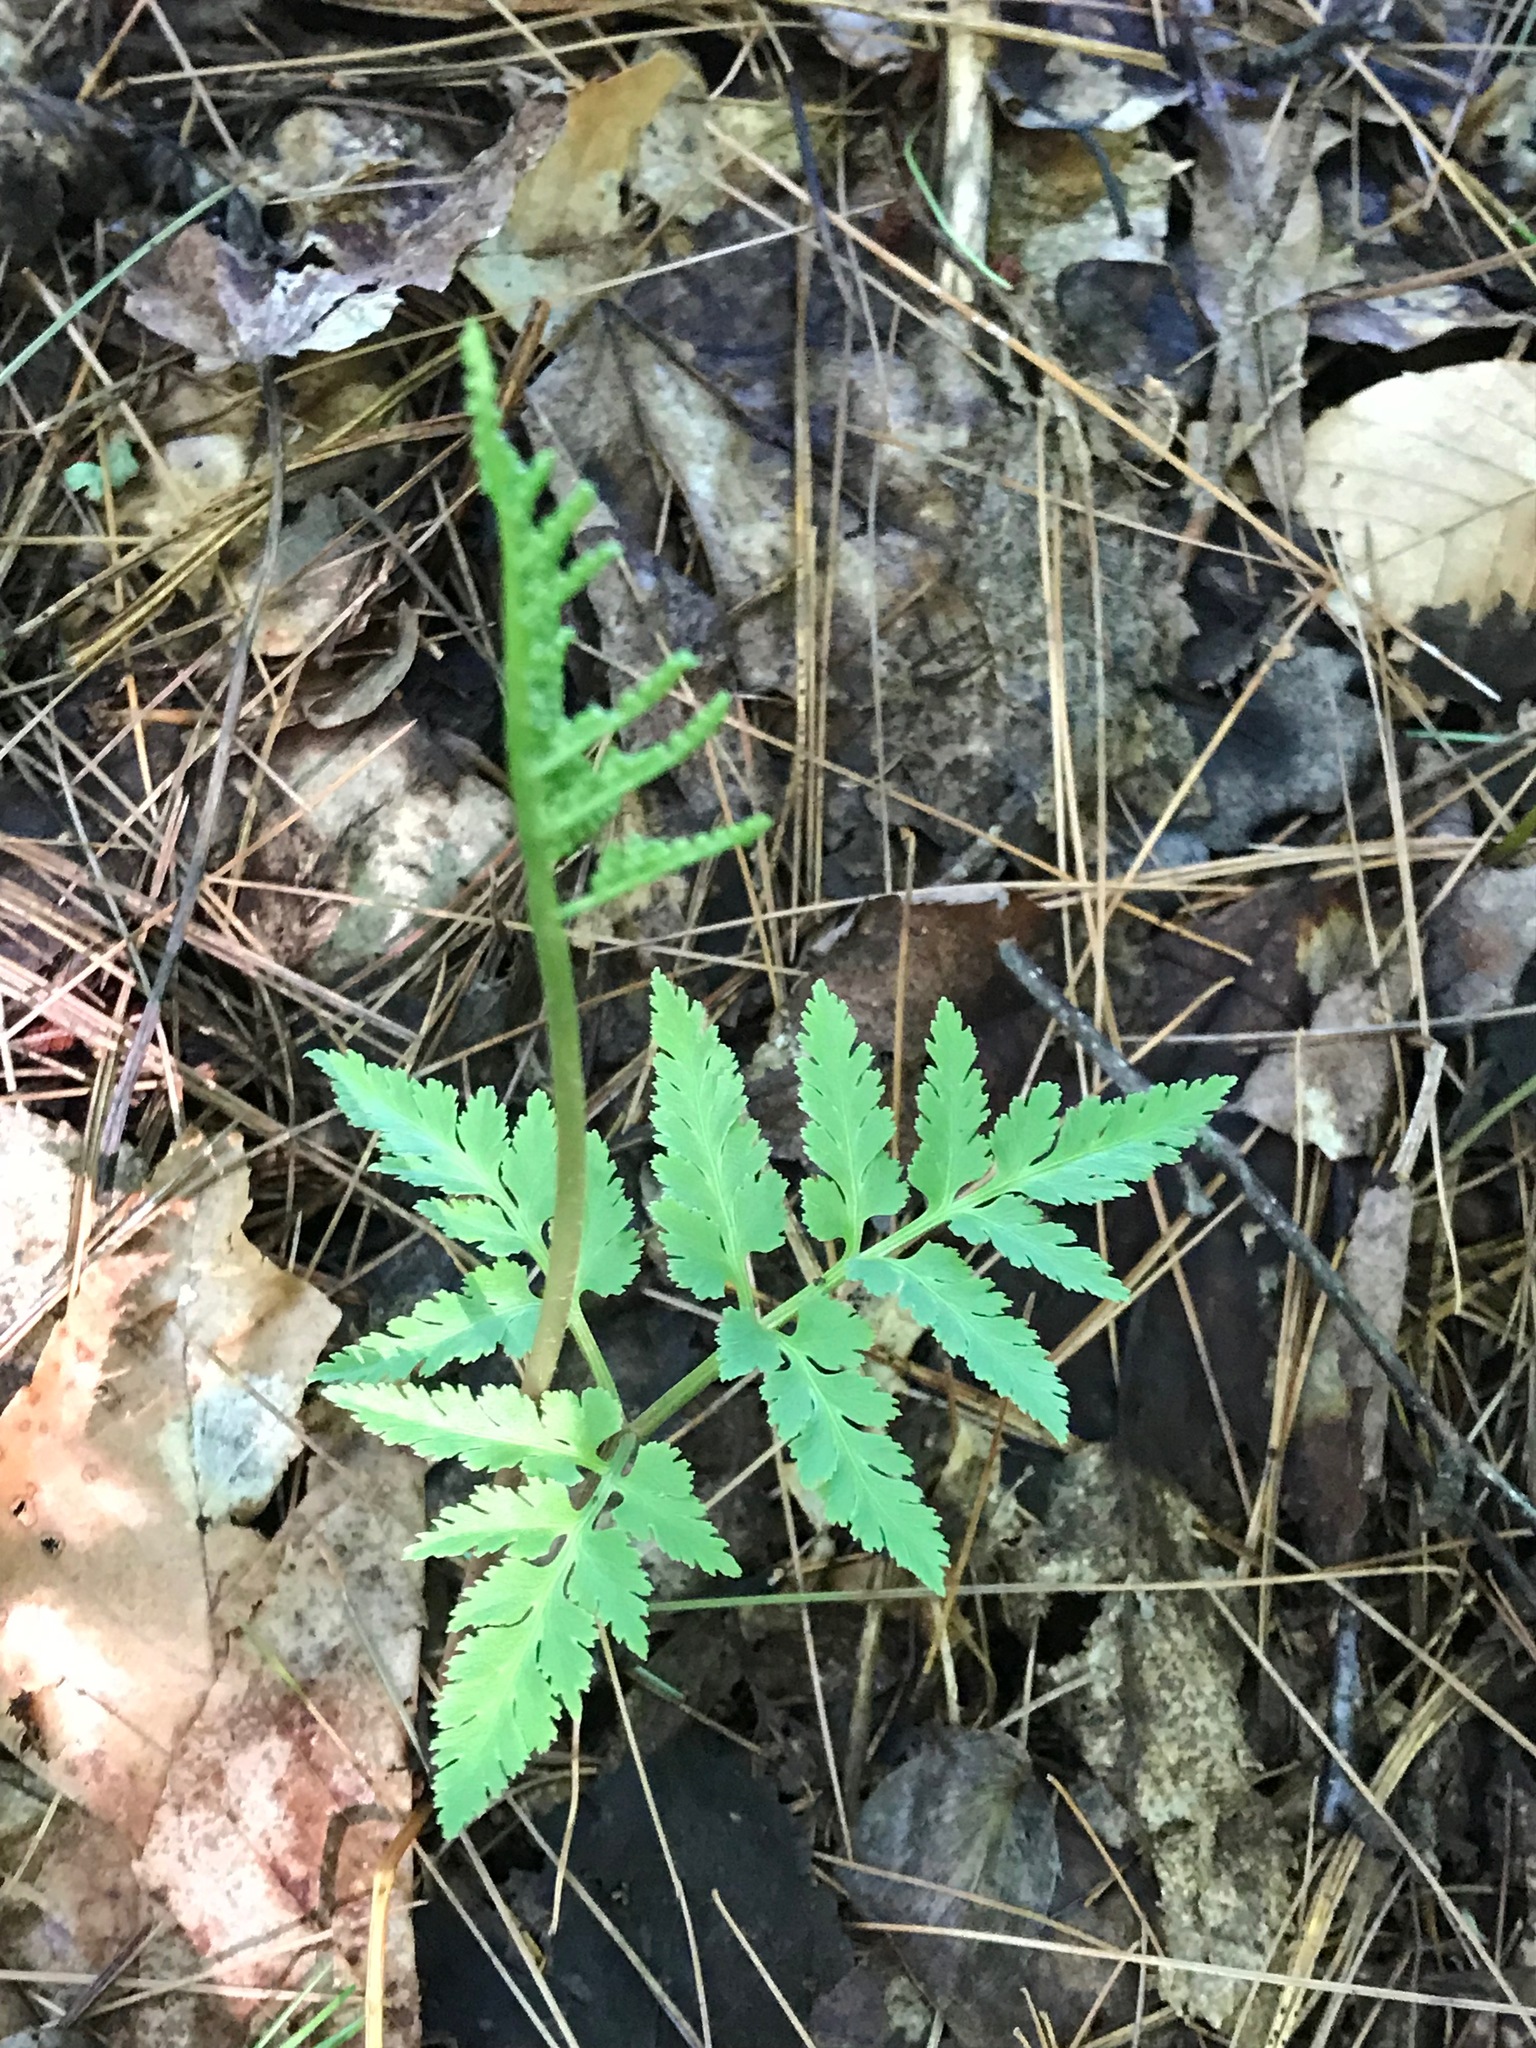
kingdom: Plantae
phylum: Tracheophyta
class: Polypodiopsida
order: Ophioglossales
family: Ophioglossaceae
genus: Sceptridium
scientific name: Sceptridium dissectum
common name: Cut-leaved grapefern
